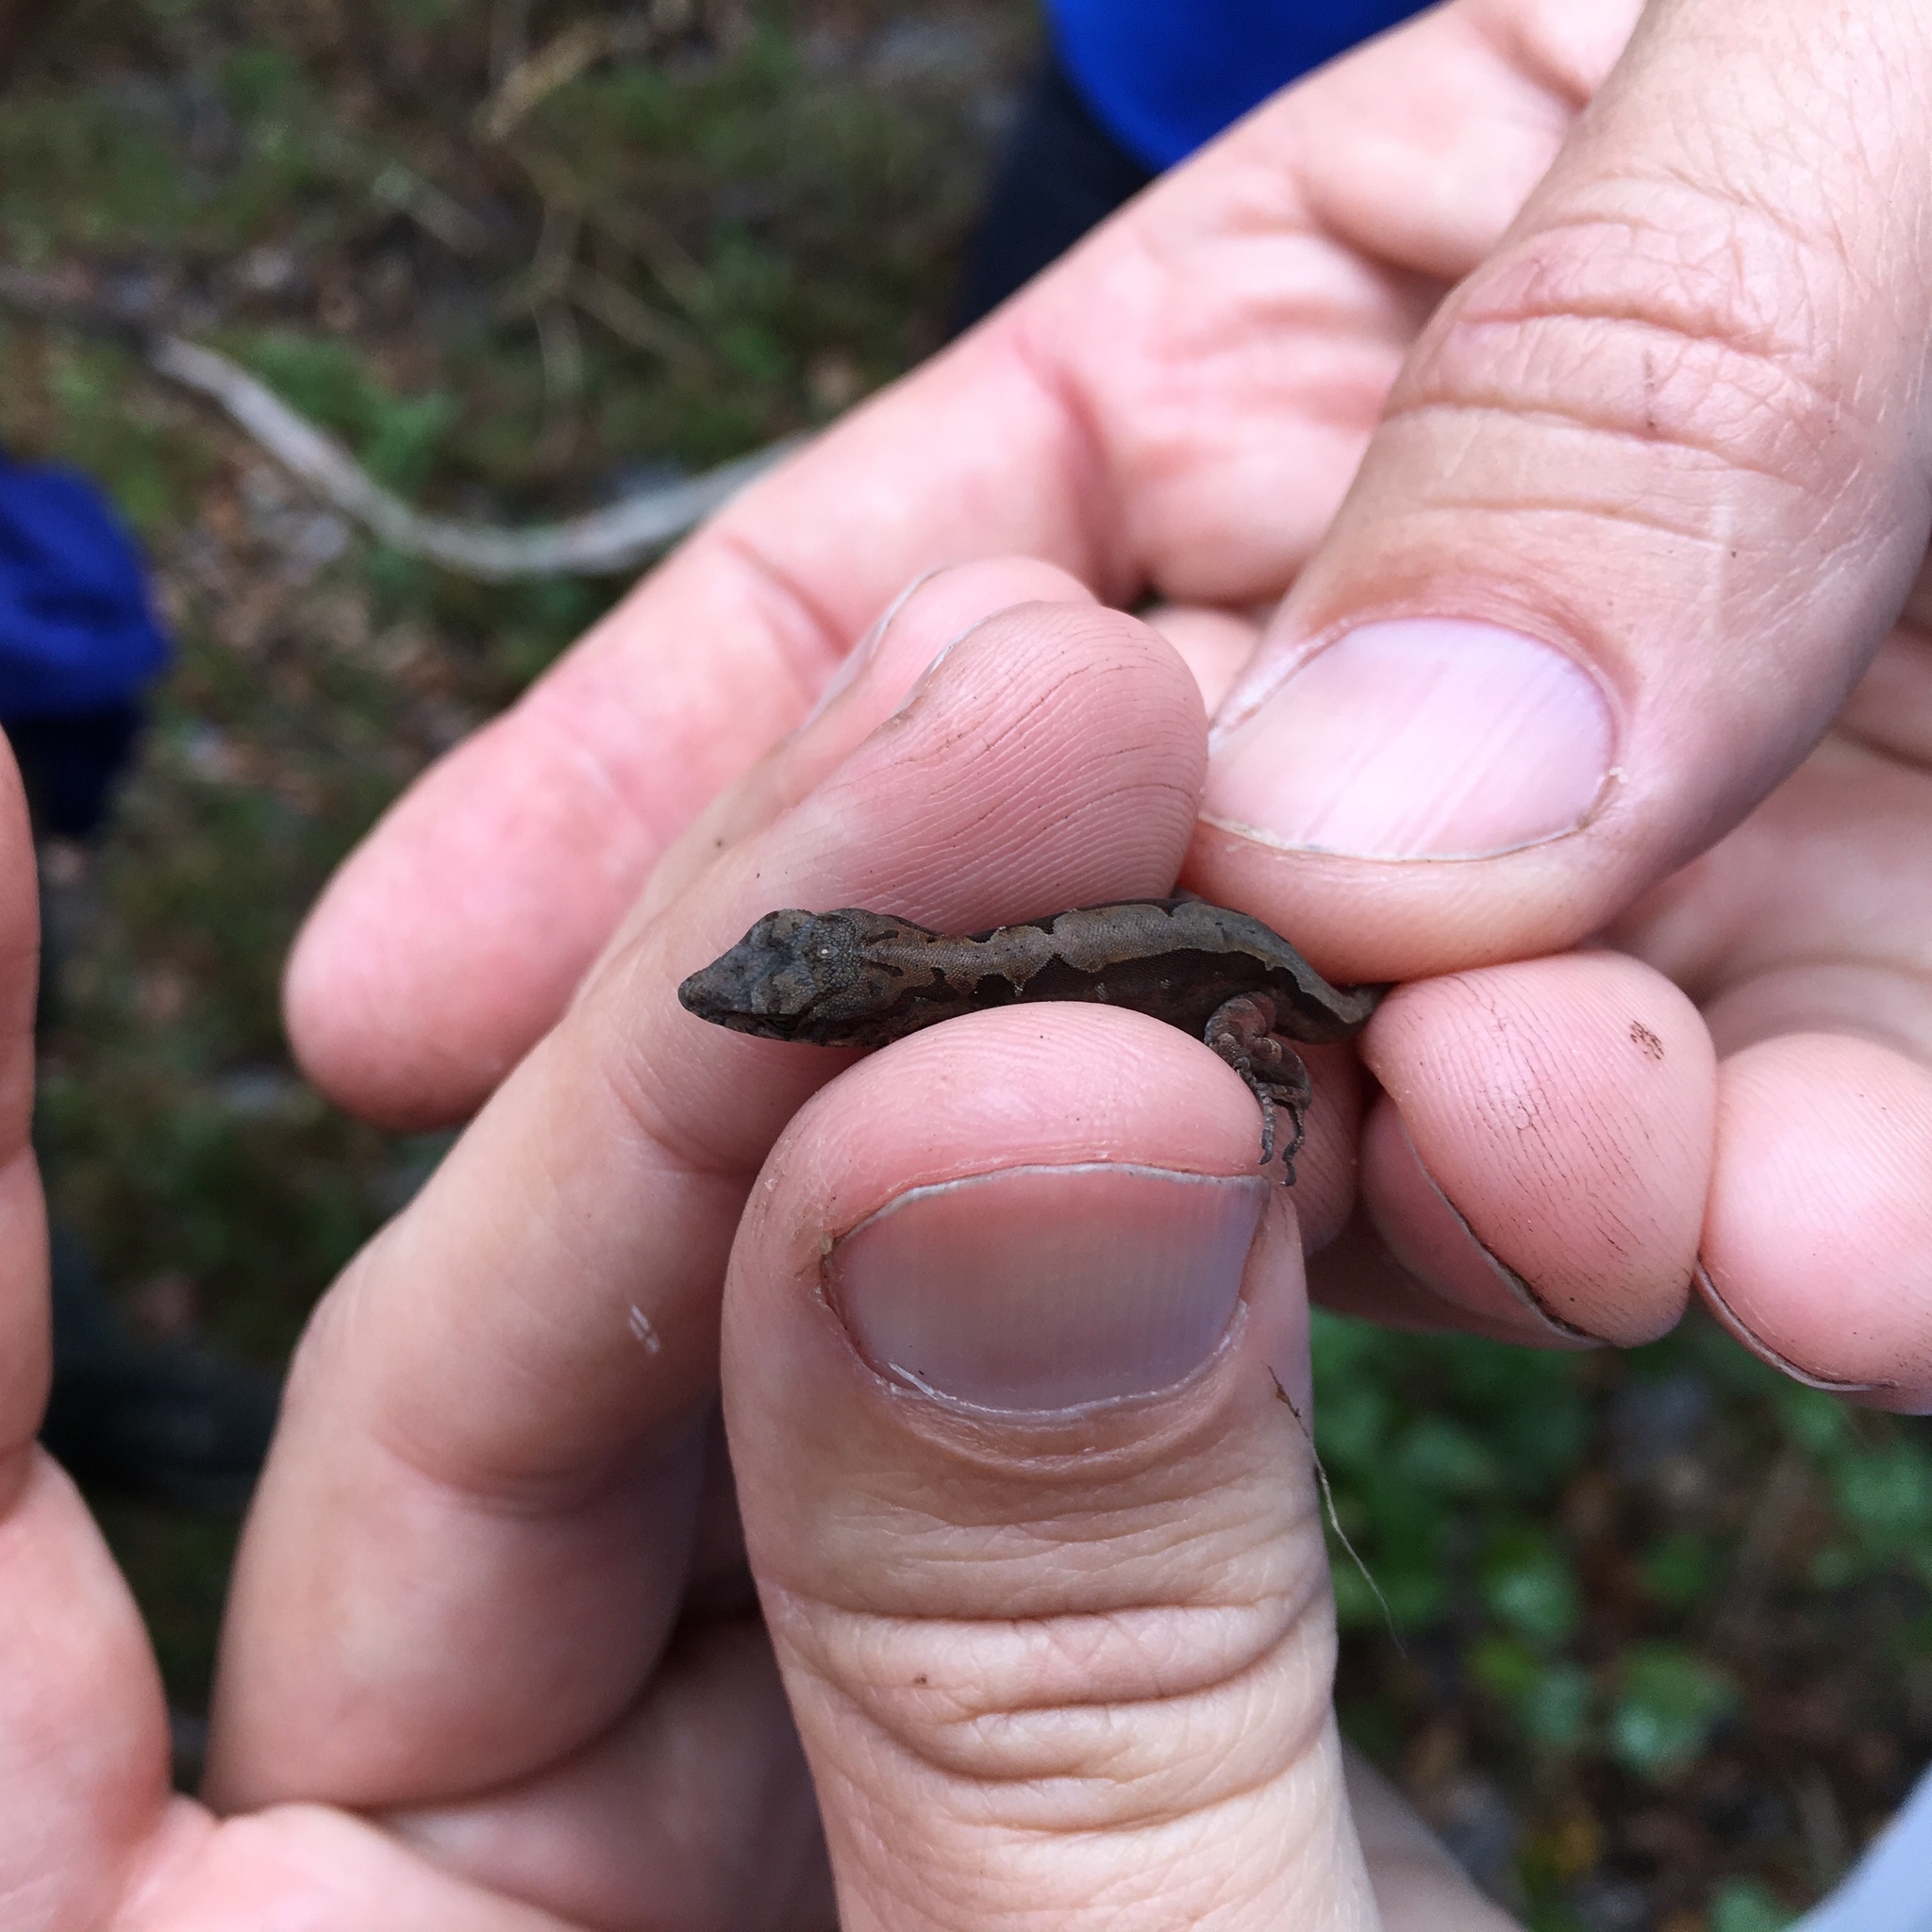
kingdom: Animalia
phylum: Chordata
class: Squamata
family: Dactyloidae
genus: Anolis
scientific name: Anolis sagrei
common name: Brown anole
